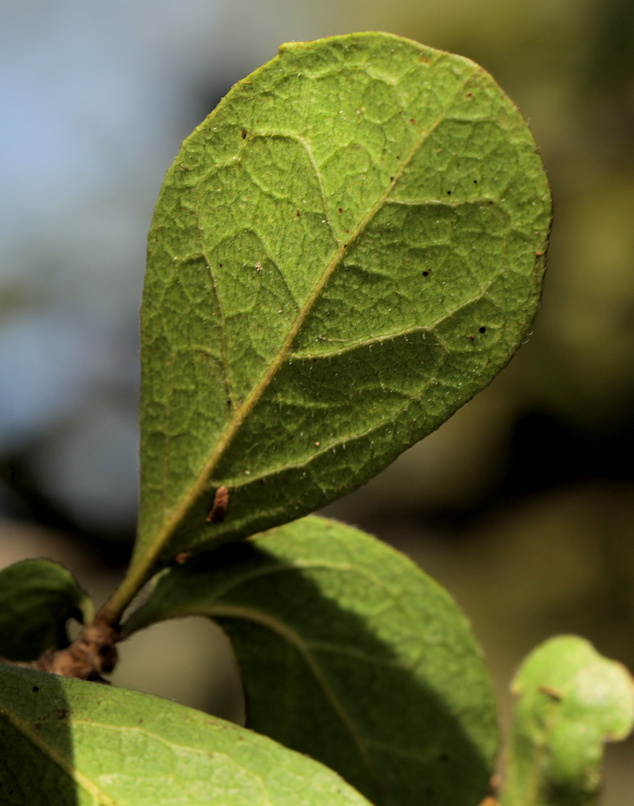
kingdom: Plantae
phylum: Tracheophyta
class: Magnoliopsida
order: Boraginales
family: Ehretiaceae
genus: Ehretia
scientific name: Ehretia amoena
